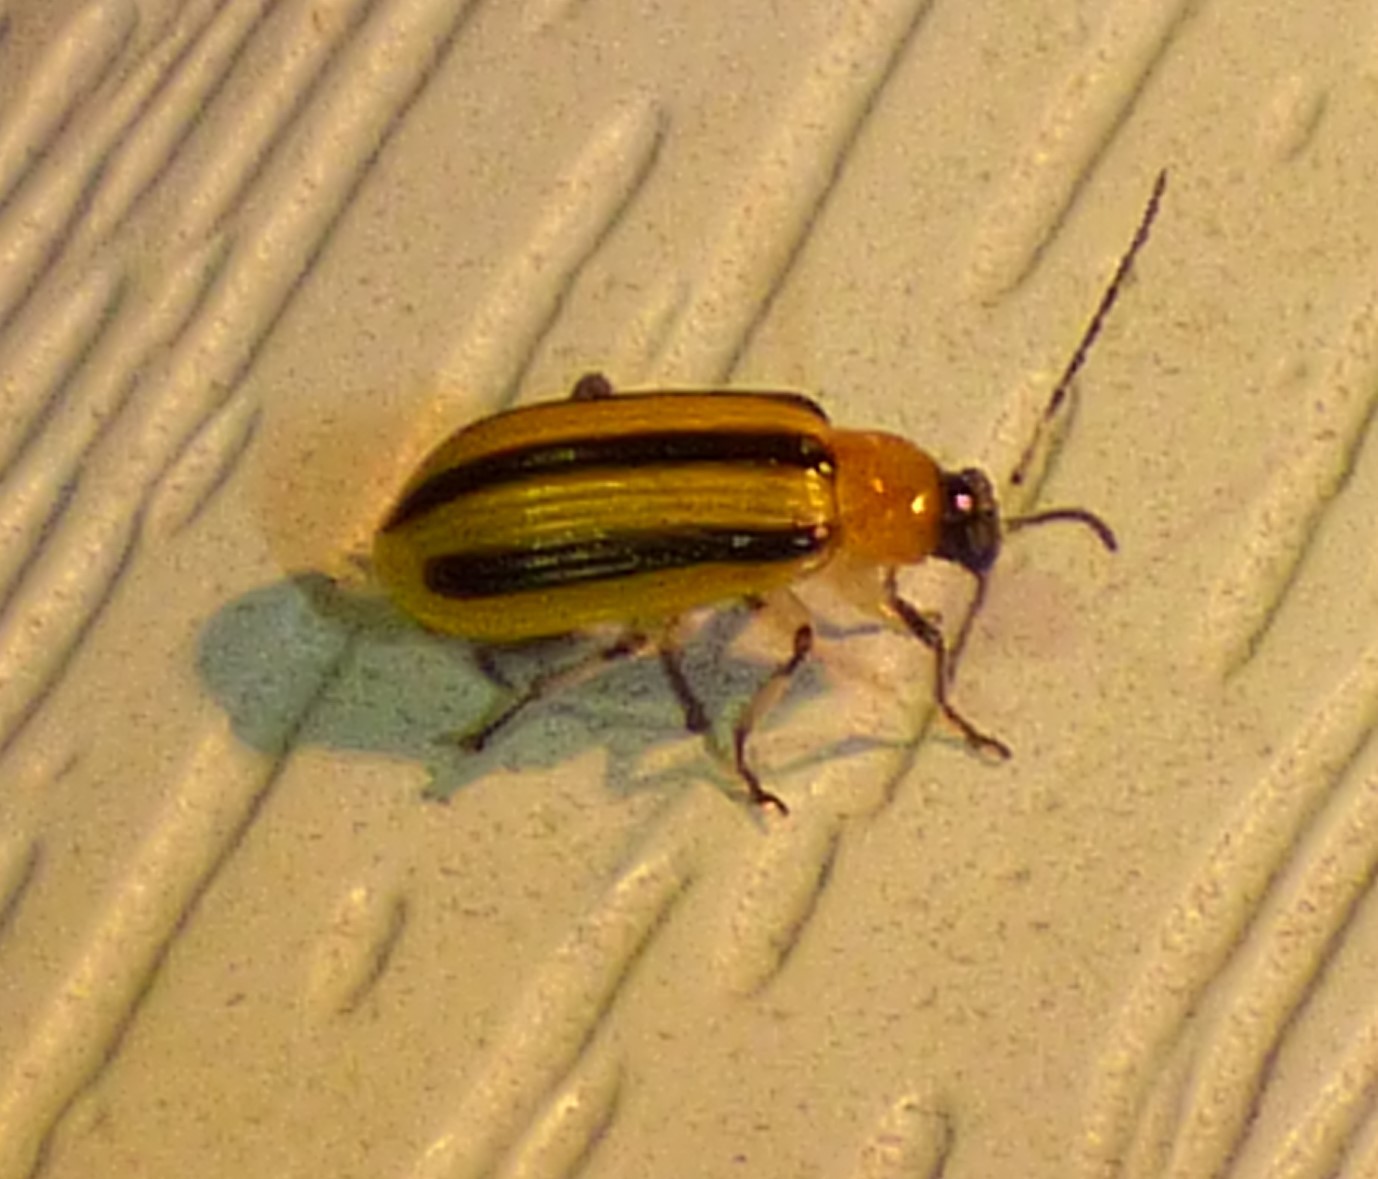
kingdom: Animalia
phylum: Arthropoda
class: Insecta
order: Coleoptera
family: Chrysomelidae
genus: Acalymma
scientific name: Acalymma vittatum
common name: Striped cucumber beetle
